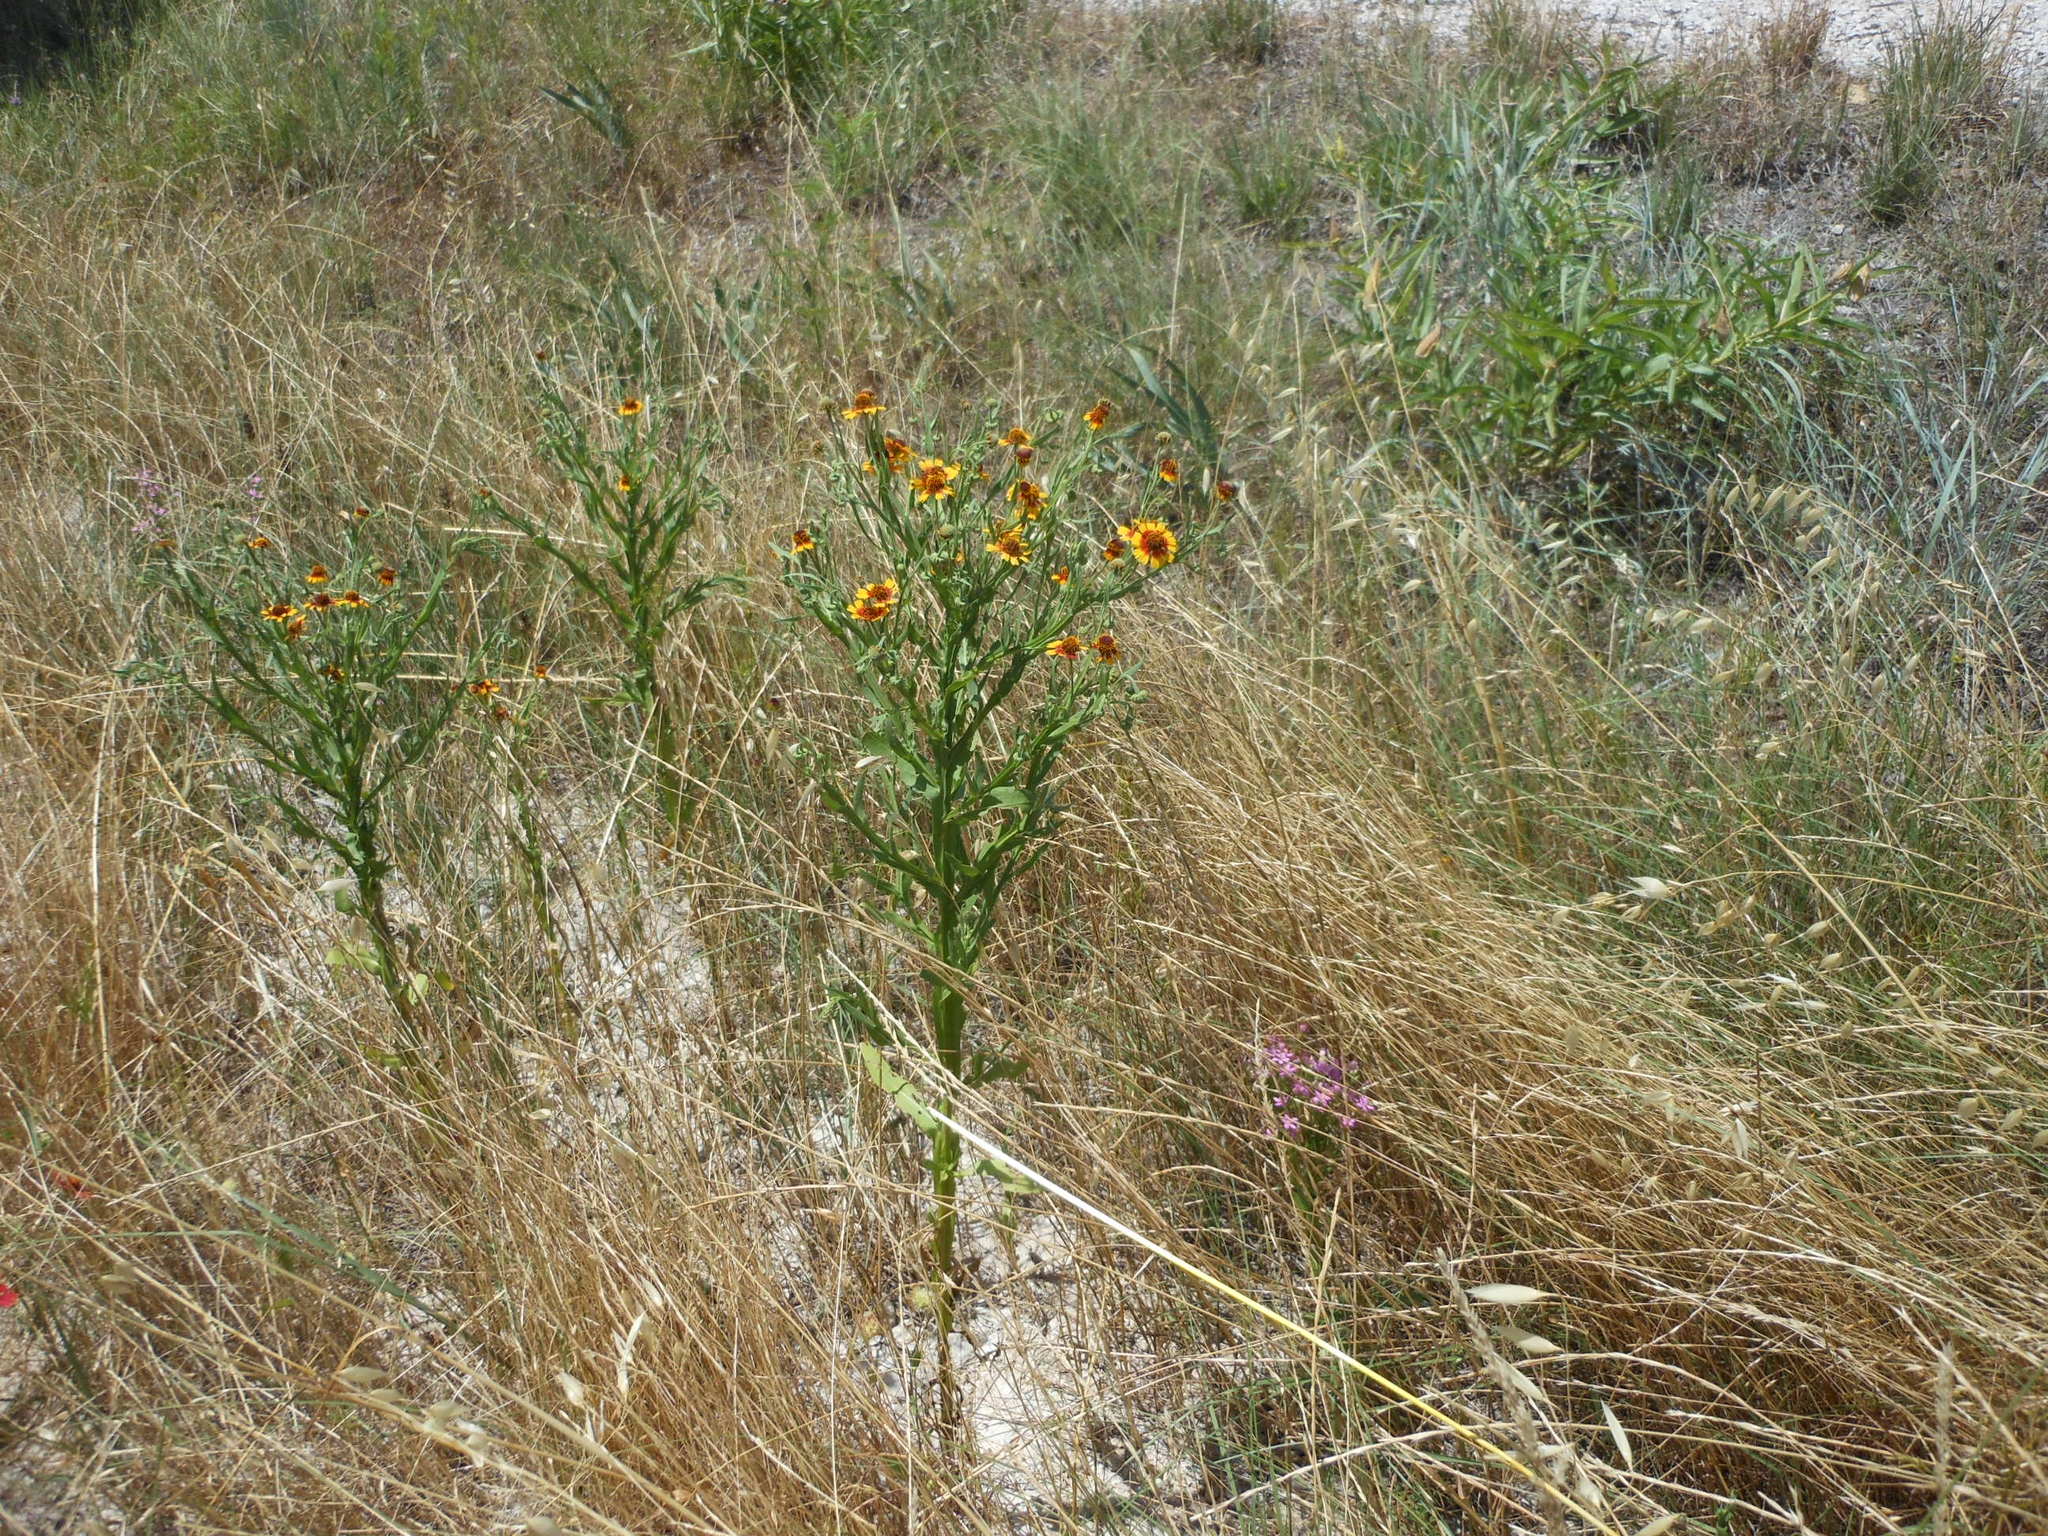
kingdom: Plantae
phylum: Tracheophyta
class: Magnoliopsida
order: Asterales
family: Asteraceae
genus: Helenium
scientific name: Helenium elegans
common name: Pretty sneezeweed
